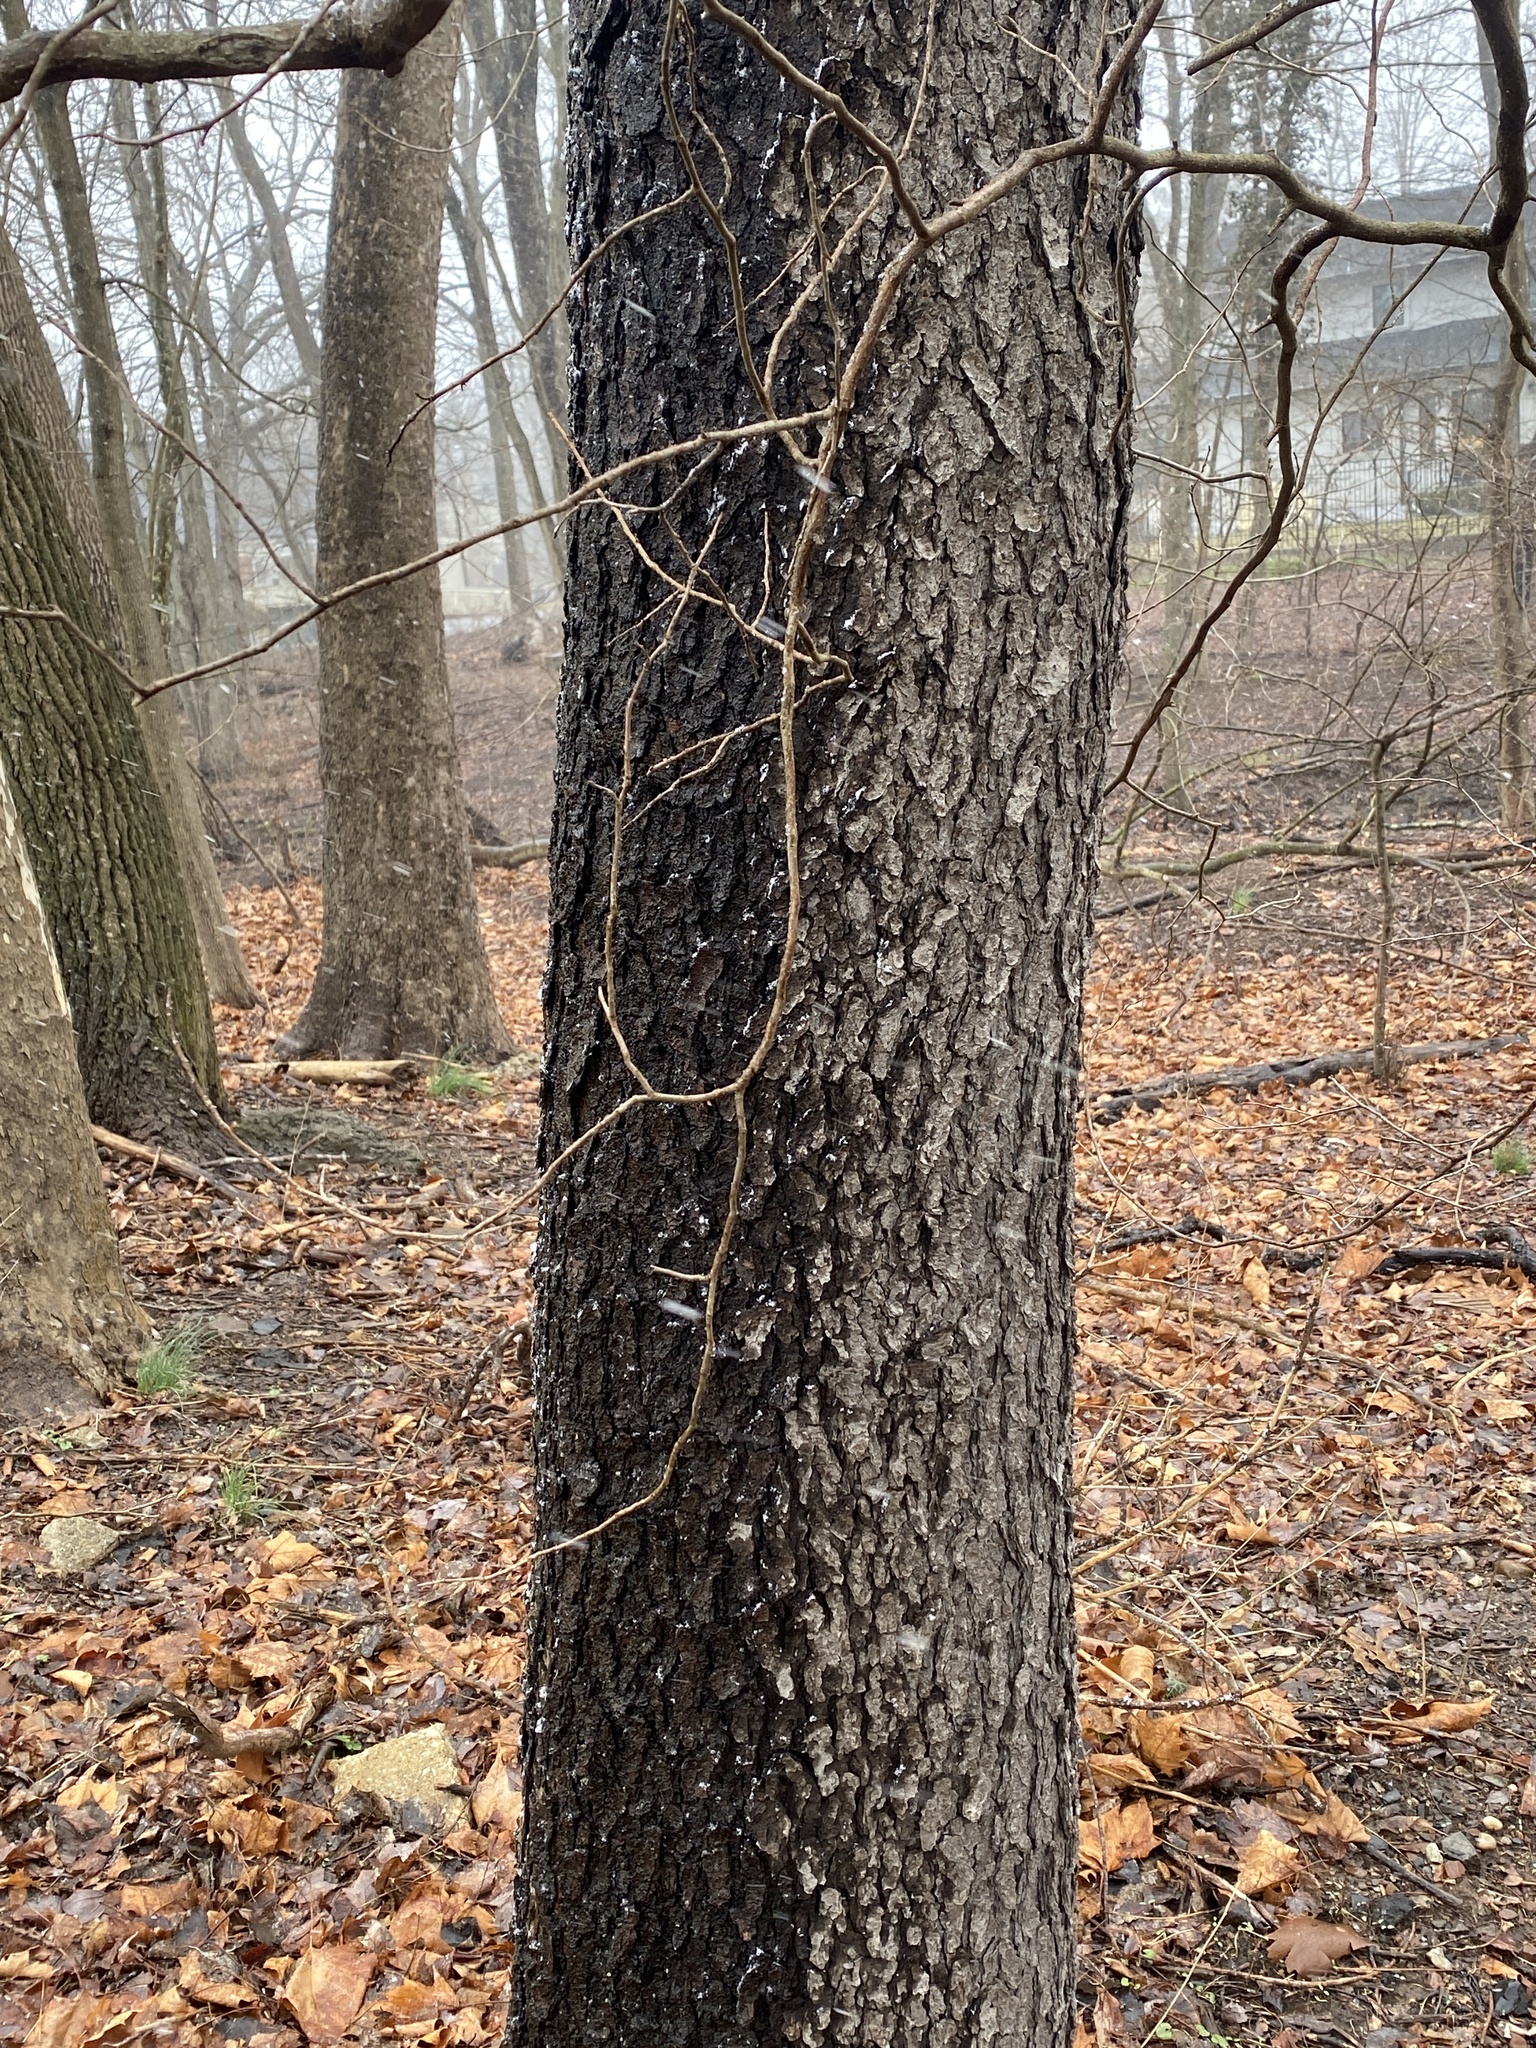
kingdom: Plantae
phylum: Tracheophyta
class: Magnoliopsida
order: Rosales
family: Rosaceae
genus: Prunus
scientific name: Prunus serotina
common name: Black cherry
